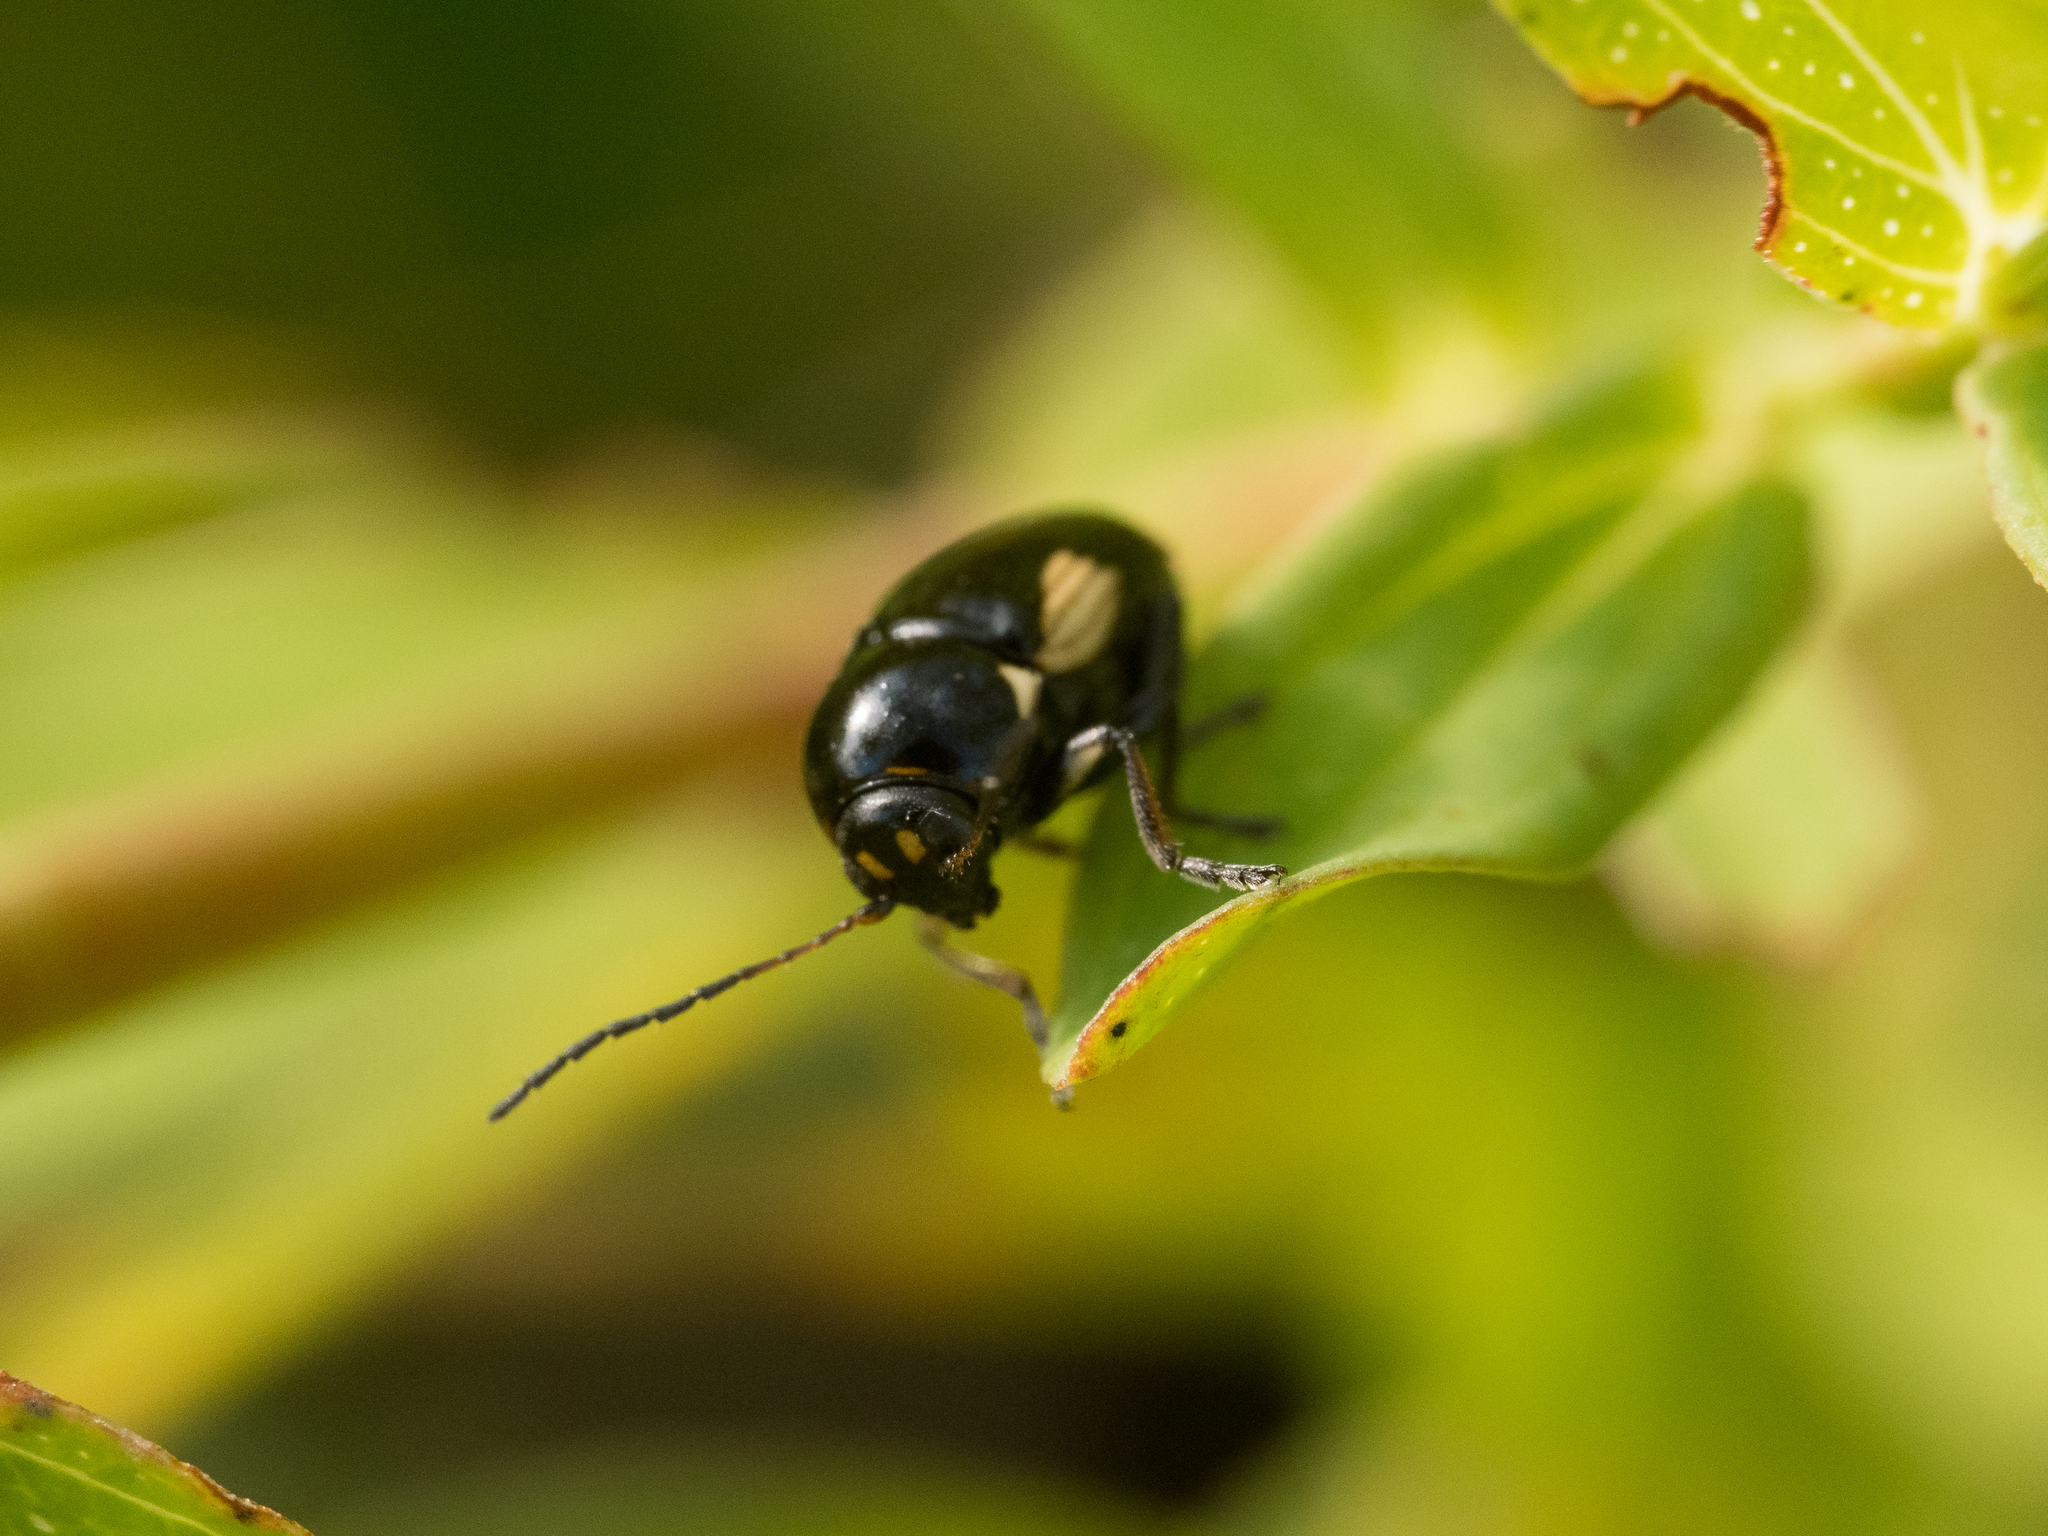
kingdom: Animalia
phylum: Arthropoda
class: Insecta
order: Coleoptera
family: Chrysomelidae
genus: Cryptocephalus
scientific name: Cryptocephalus moraei
